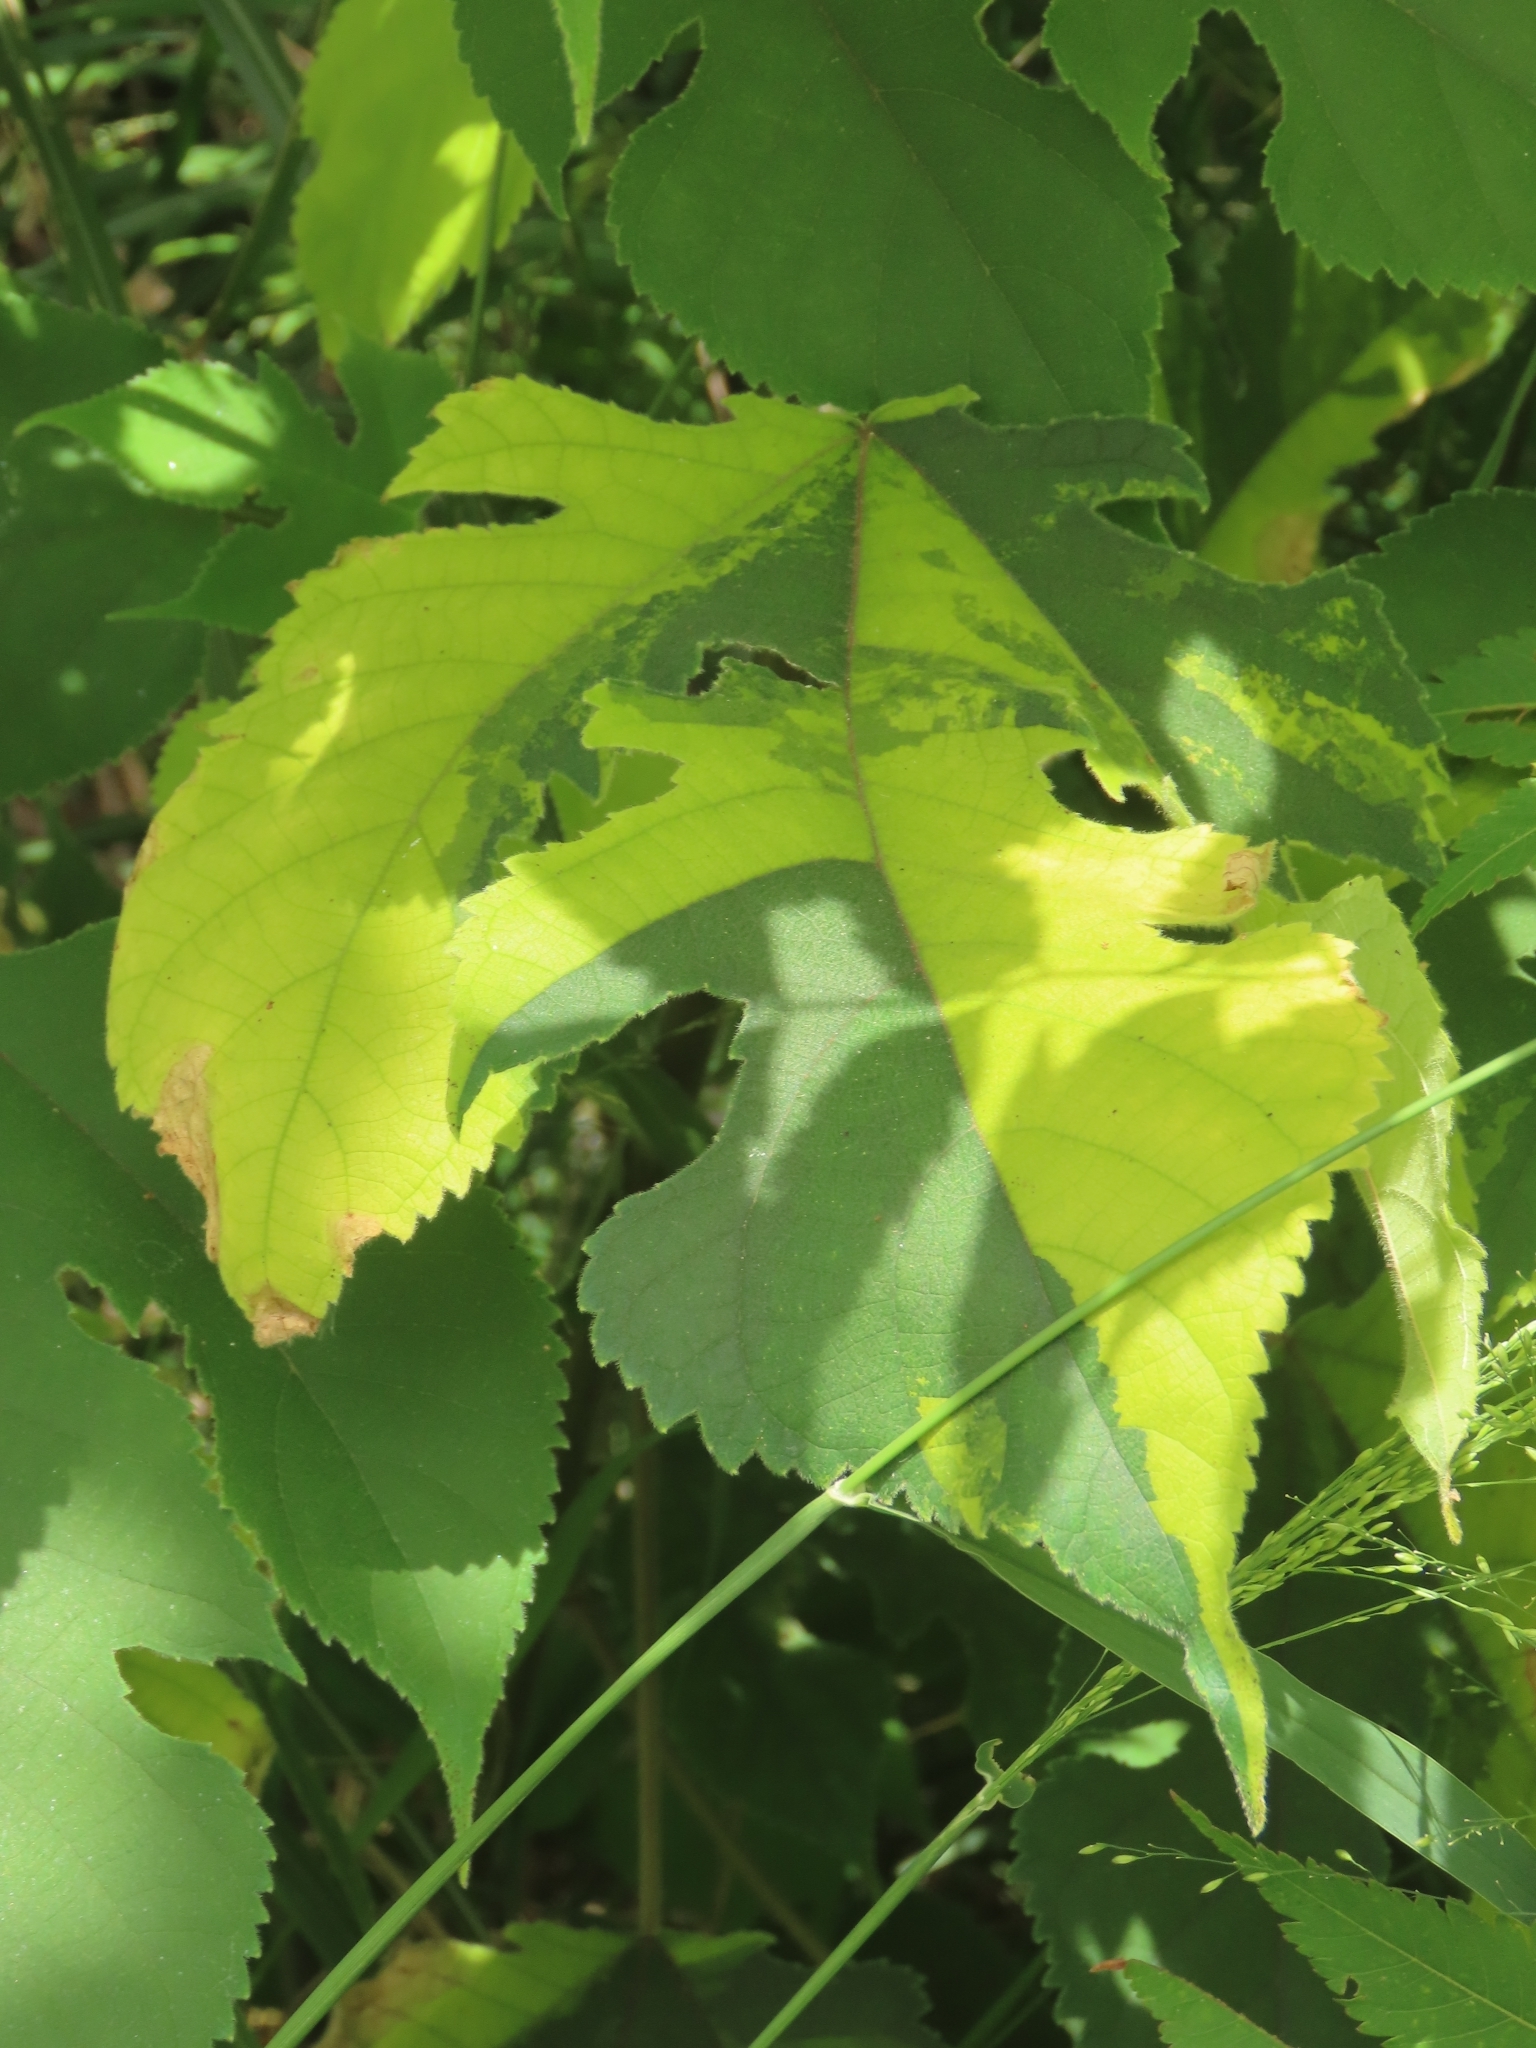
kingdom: Plantae
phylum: Tracheophyta
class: Magnoliopsida
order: Rosales
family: Moraceae
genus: Broussonetia
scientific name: Broussonetia papyrifera
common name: Paper mulberry
